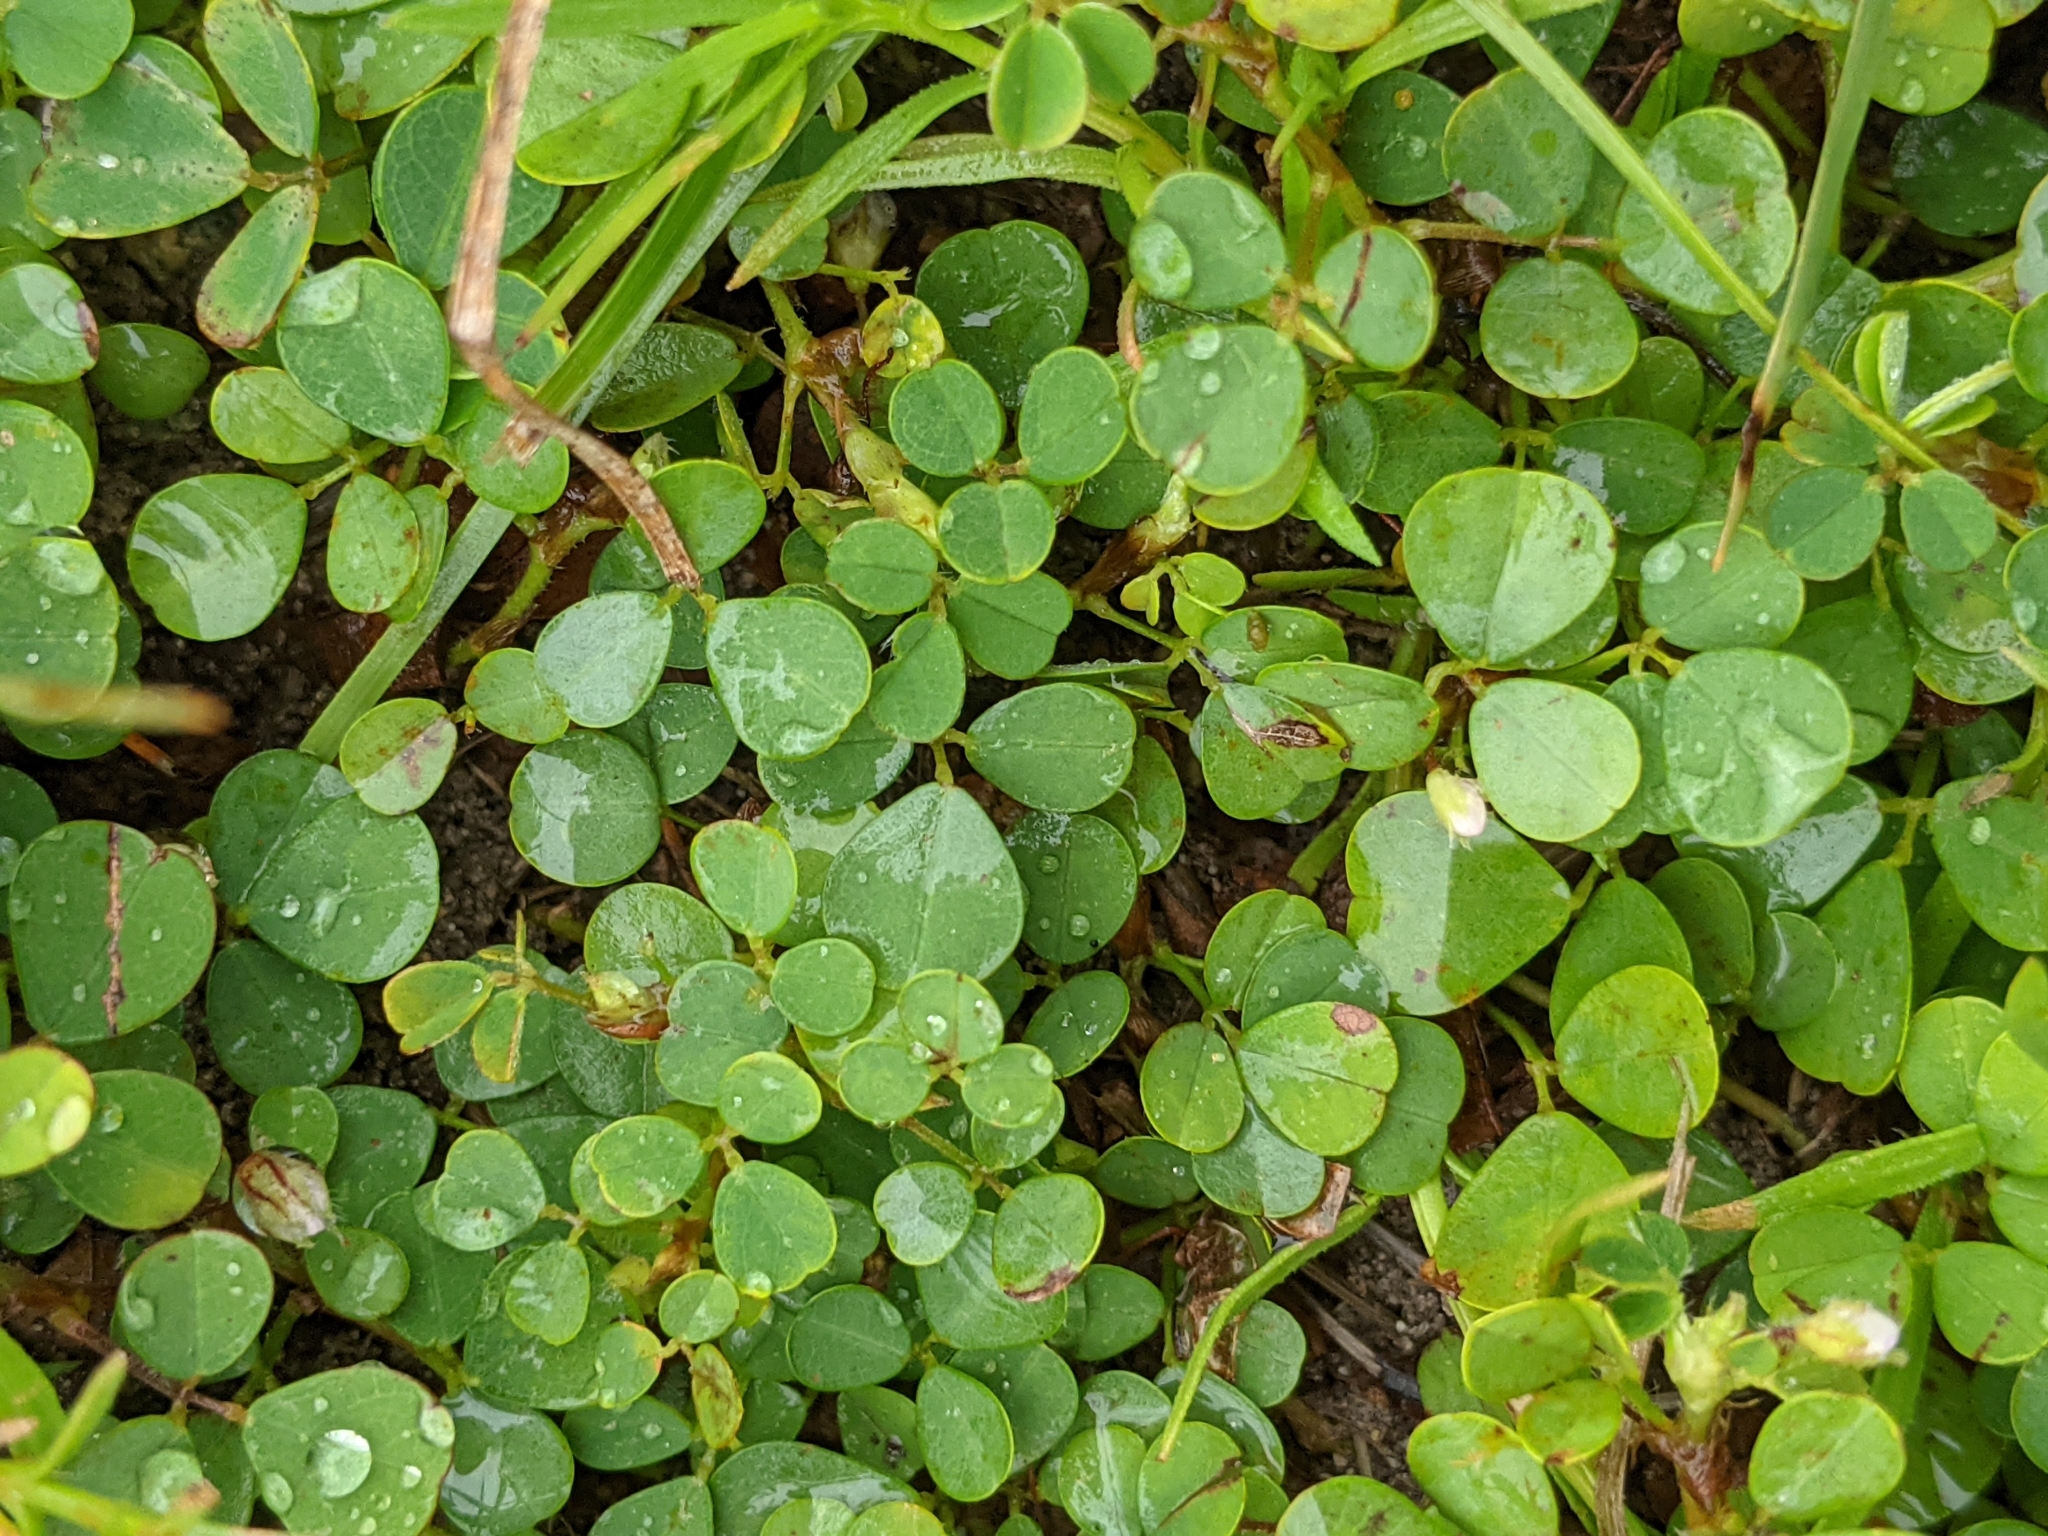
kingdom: Plantae
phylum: Tracheophyta
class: Magnoliopsida
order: Fabales
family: Fabaceae
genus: Grona
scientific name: Grona triflora
